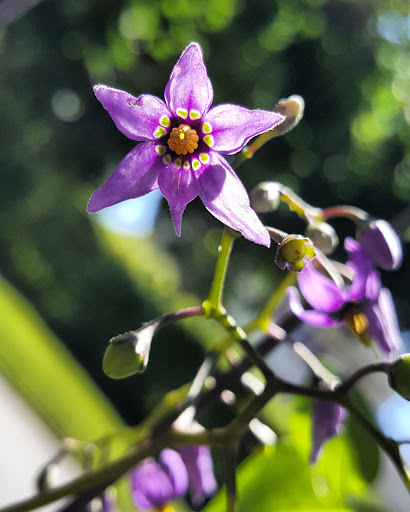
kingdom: Plantae
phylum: Tracheophyta
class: Magnoliopsida
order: Solanales
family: Solanaceae
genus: Solanum
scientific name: Solanum dulcamara
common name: Climbing nightshade
